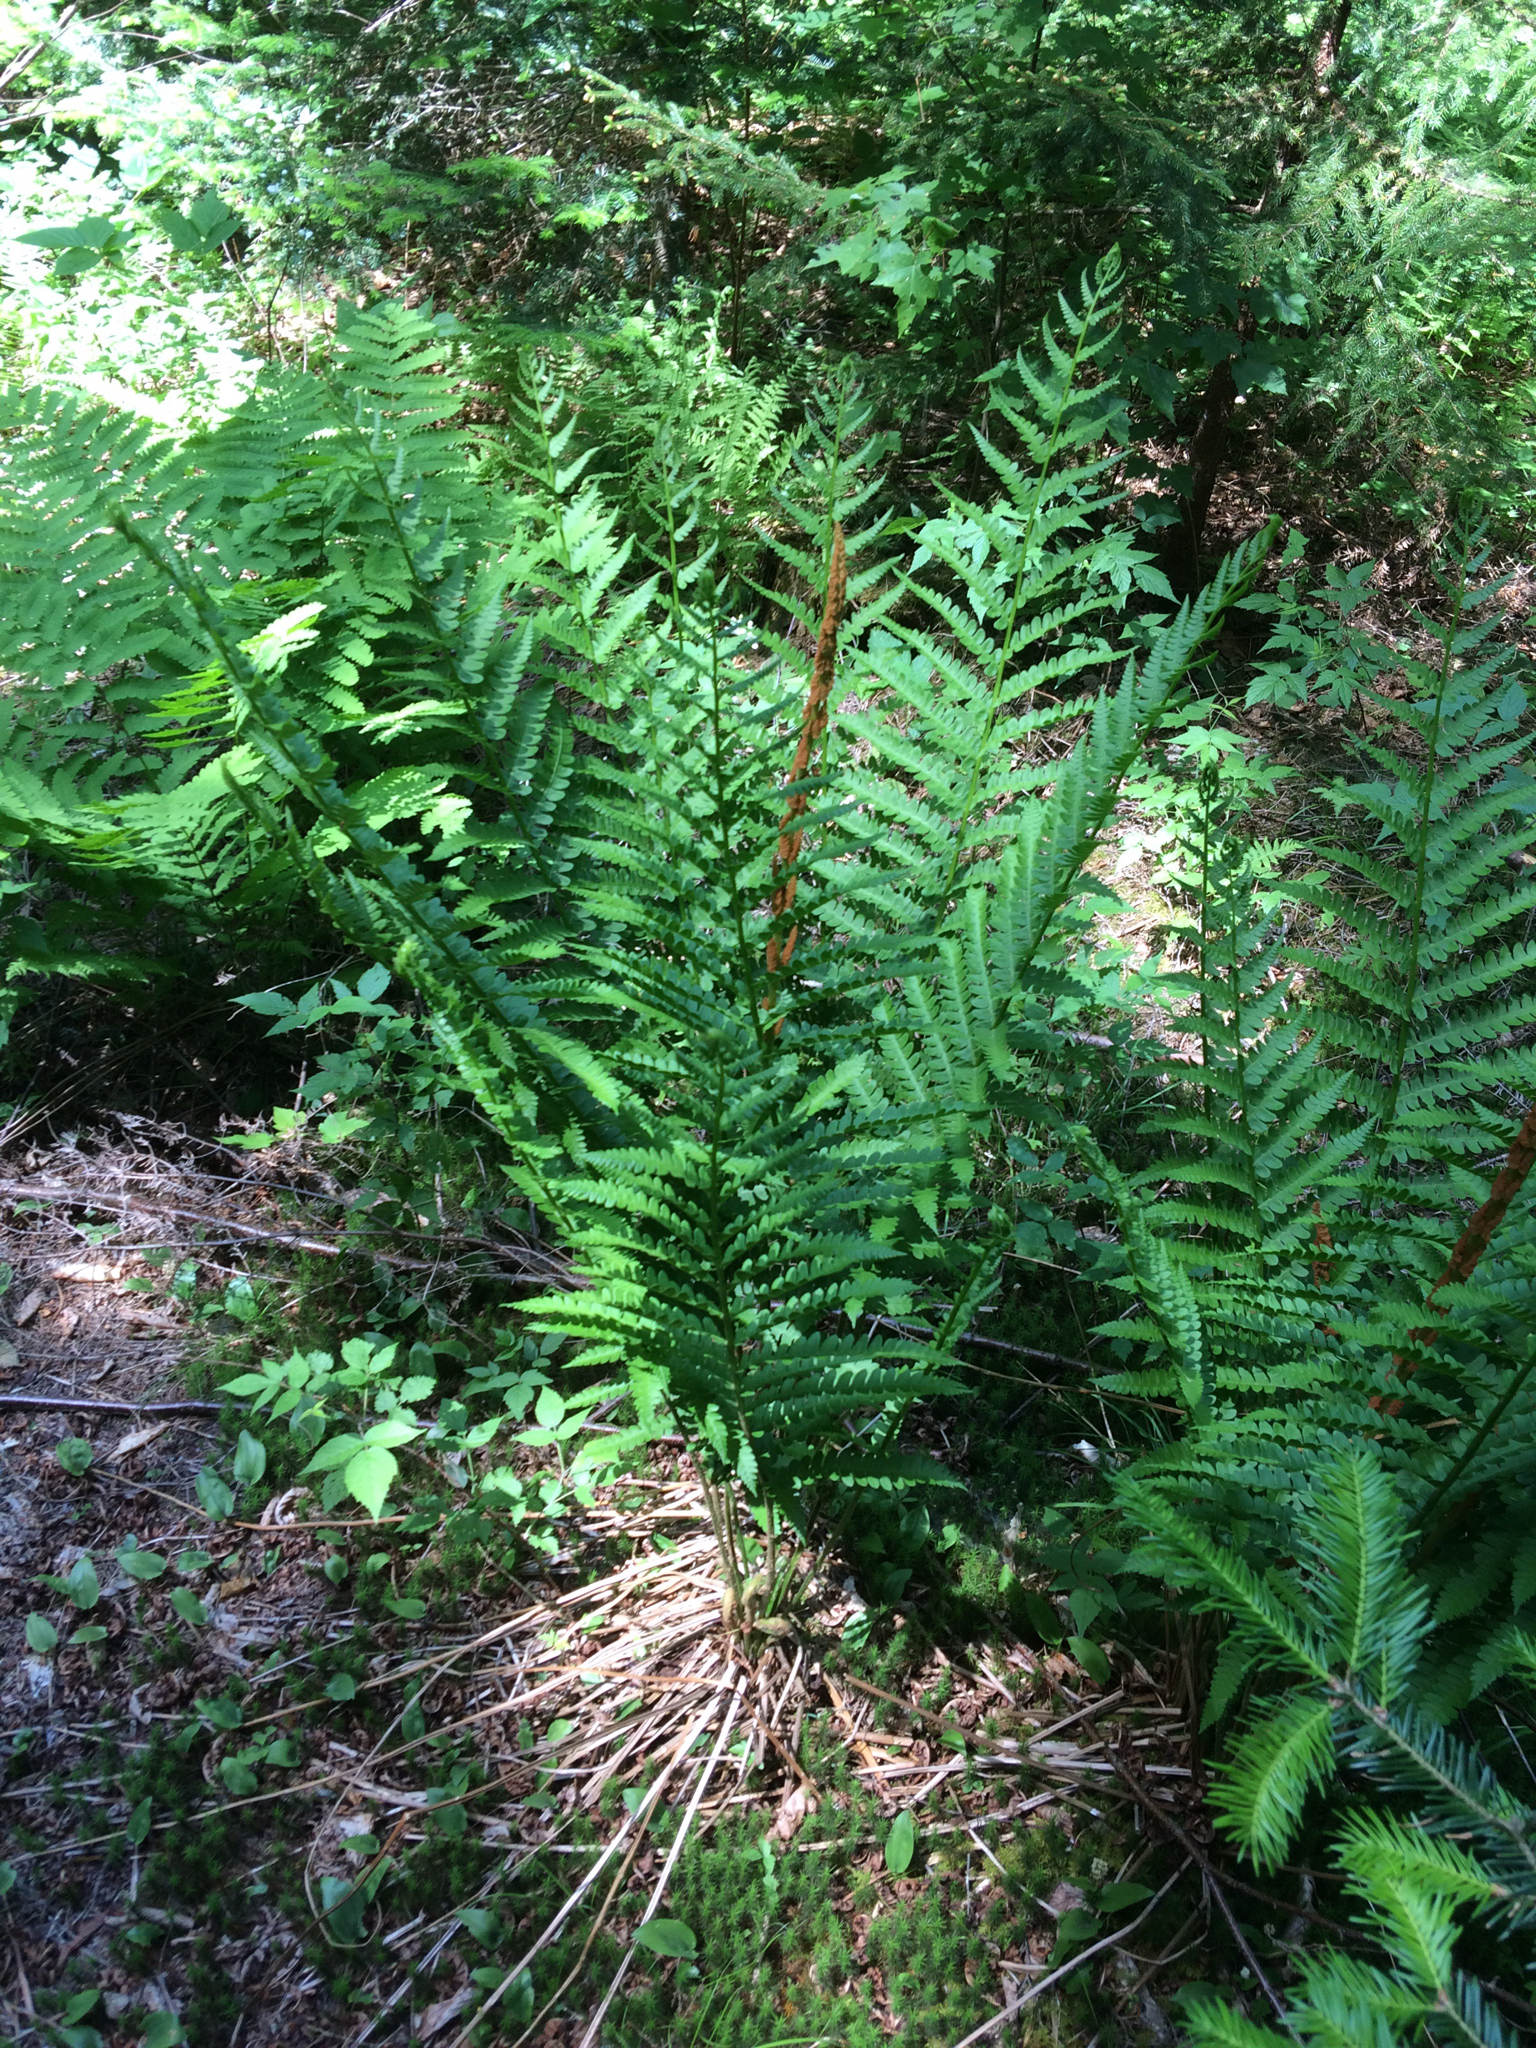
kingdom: Plantae
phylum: Tracheophyta
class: Polypodiopsida
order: Osmundales
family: Osmundaceae
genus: Osmundastrum
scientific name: Osmundastrum cinnamomeum
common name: Cinnamon fern
